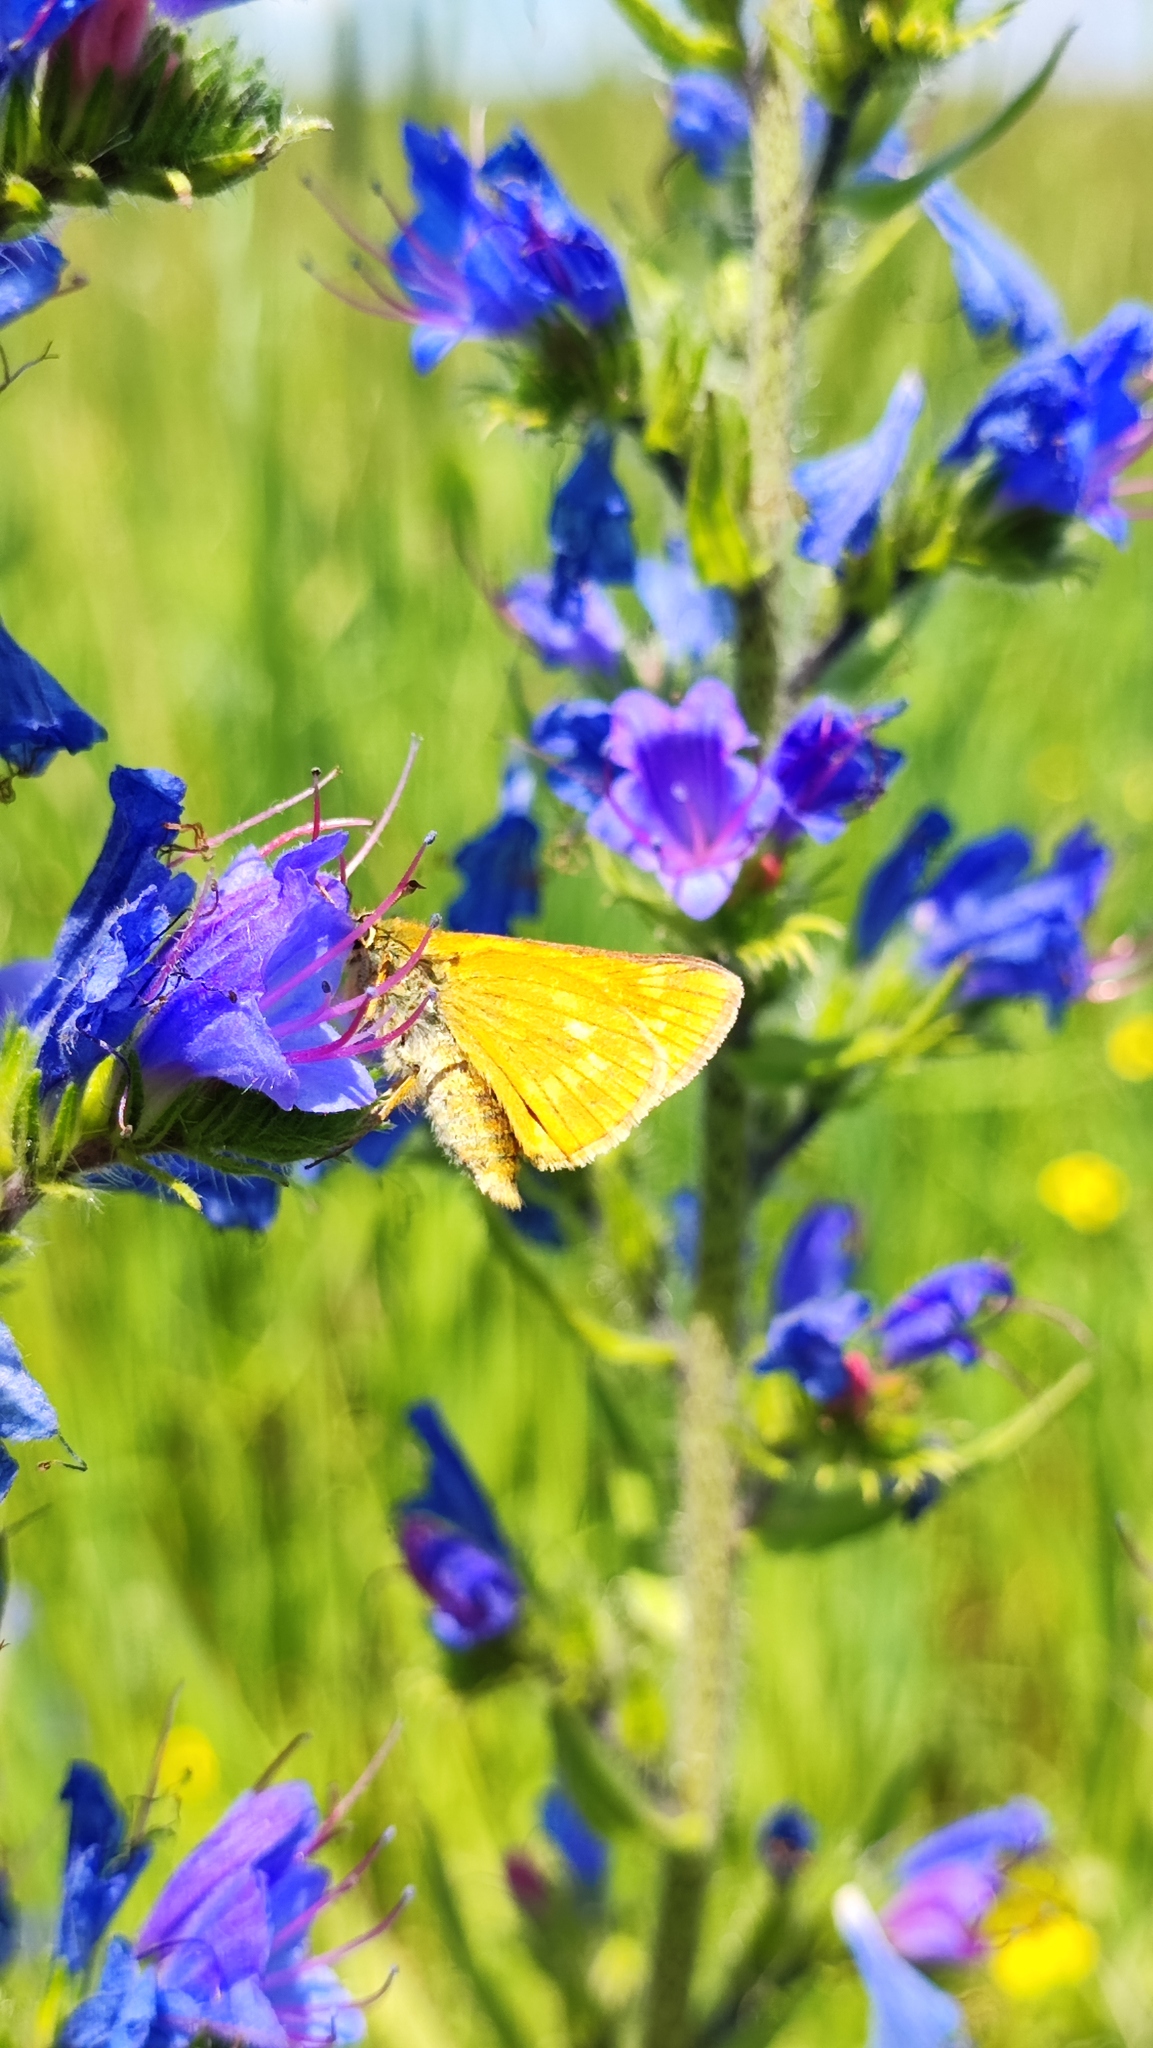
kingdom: Animalia
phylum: Arthropoda
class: Insecta
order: Lepidoptera
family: Hesperiidae
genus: Ochlodes
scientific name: Ochlodes venata
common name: Large skipper
